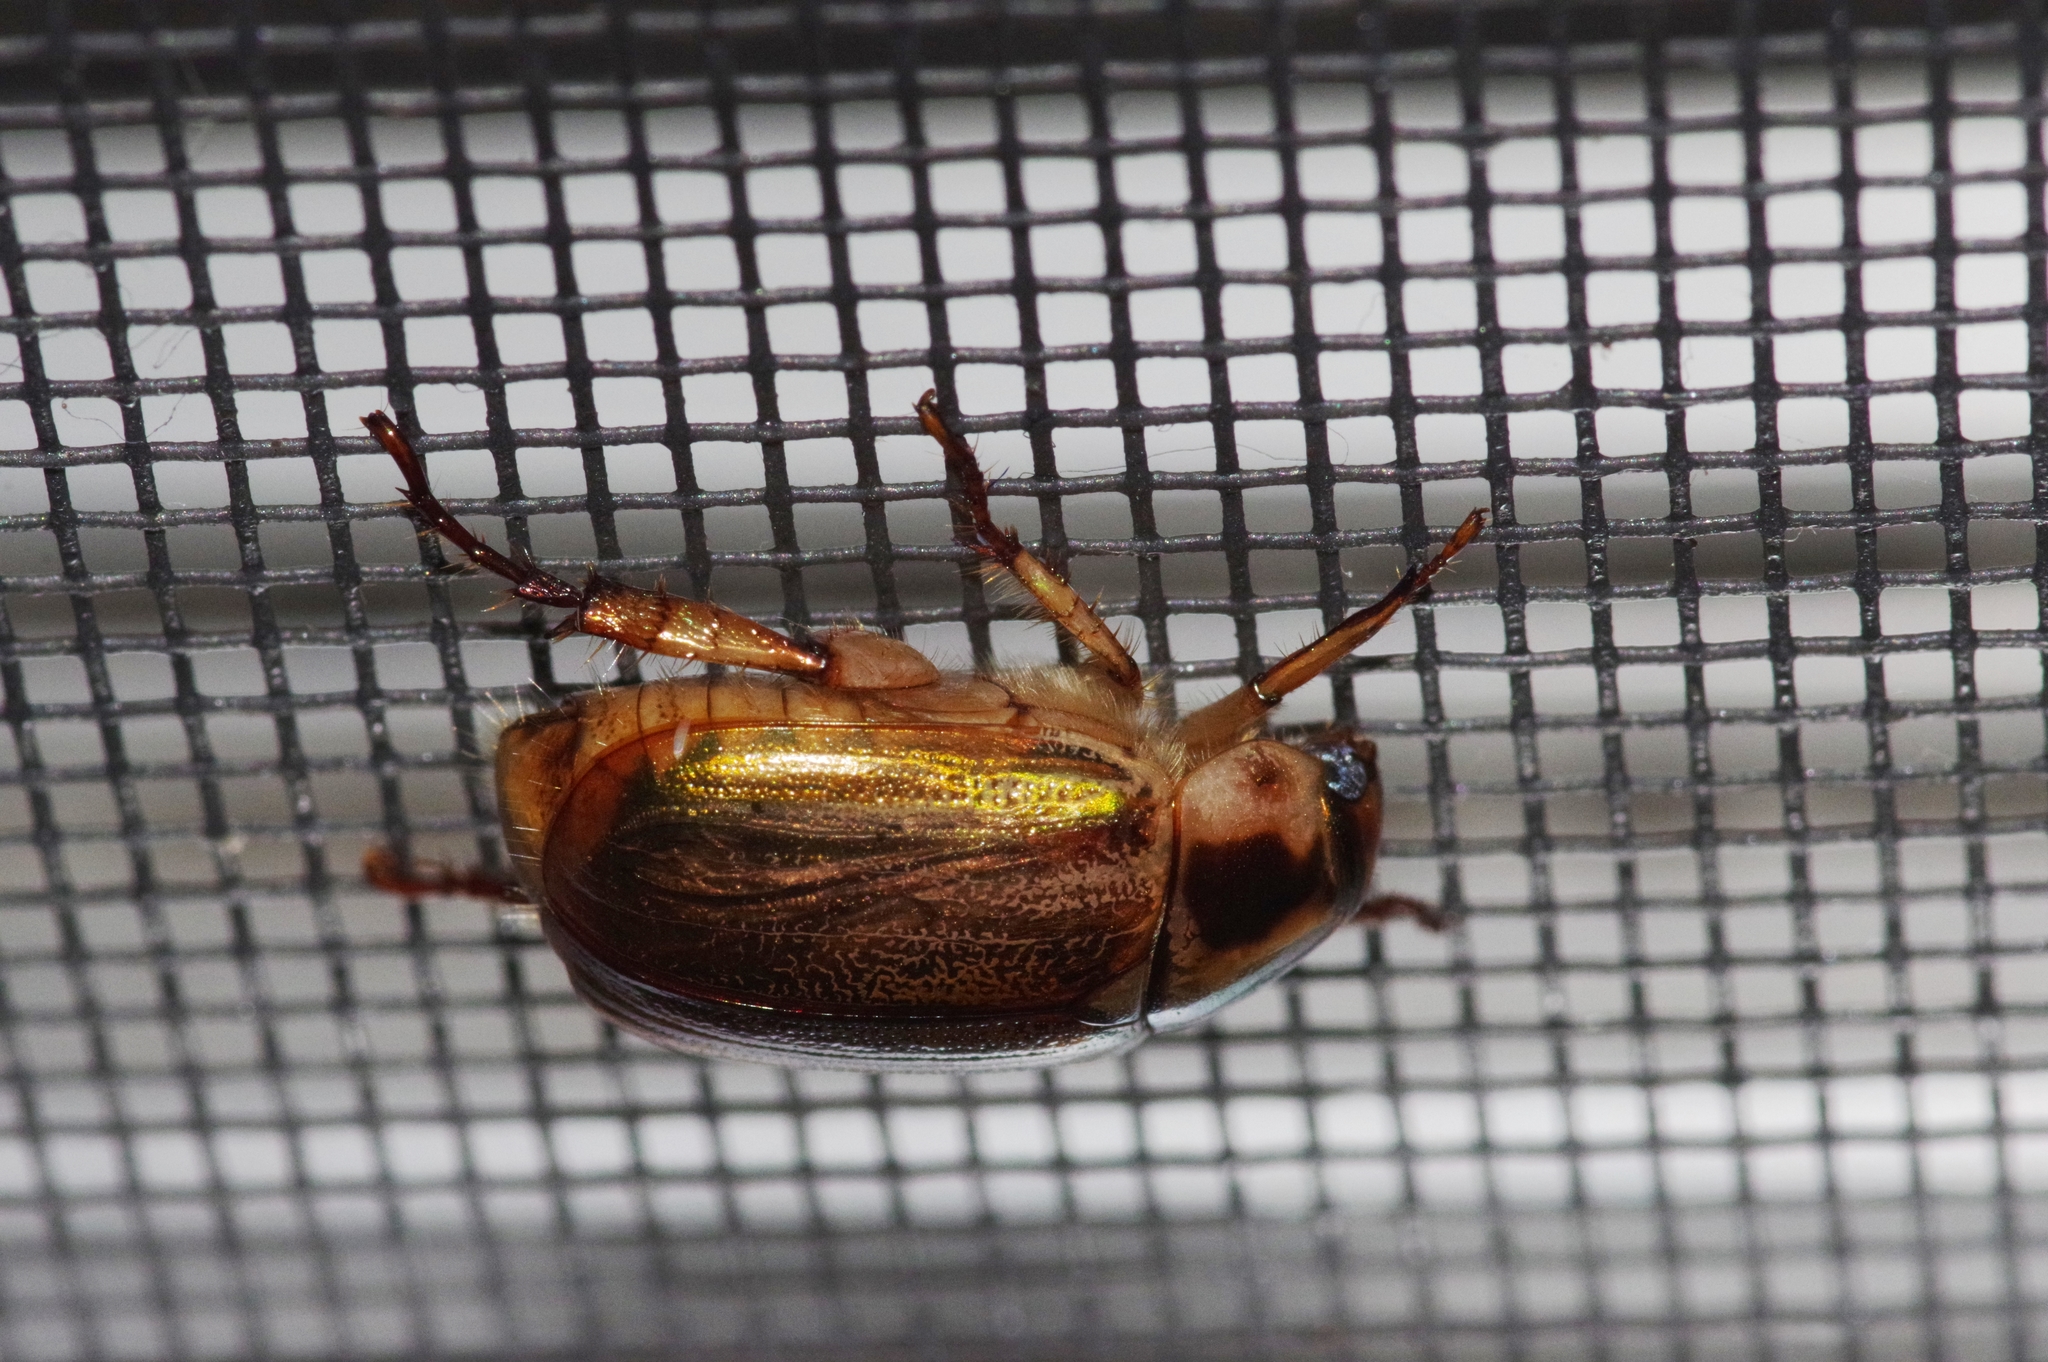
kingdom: Animalia
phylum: Arthropoda
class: Insecta
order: Coleoptera
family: Scarabaeidae
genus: Anomala
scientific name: Anomala triangularis
